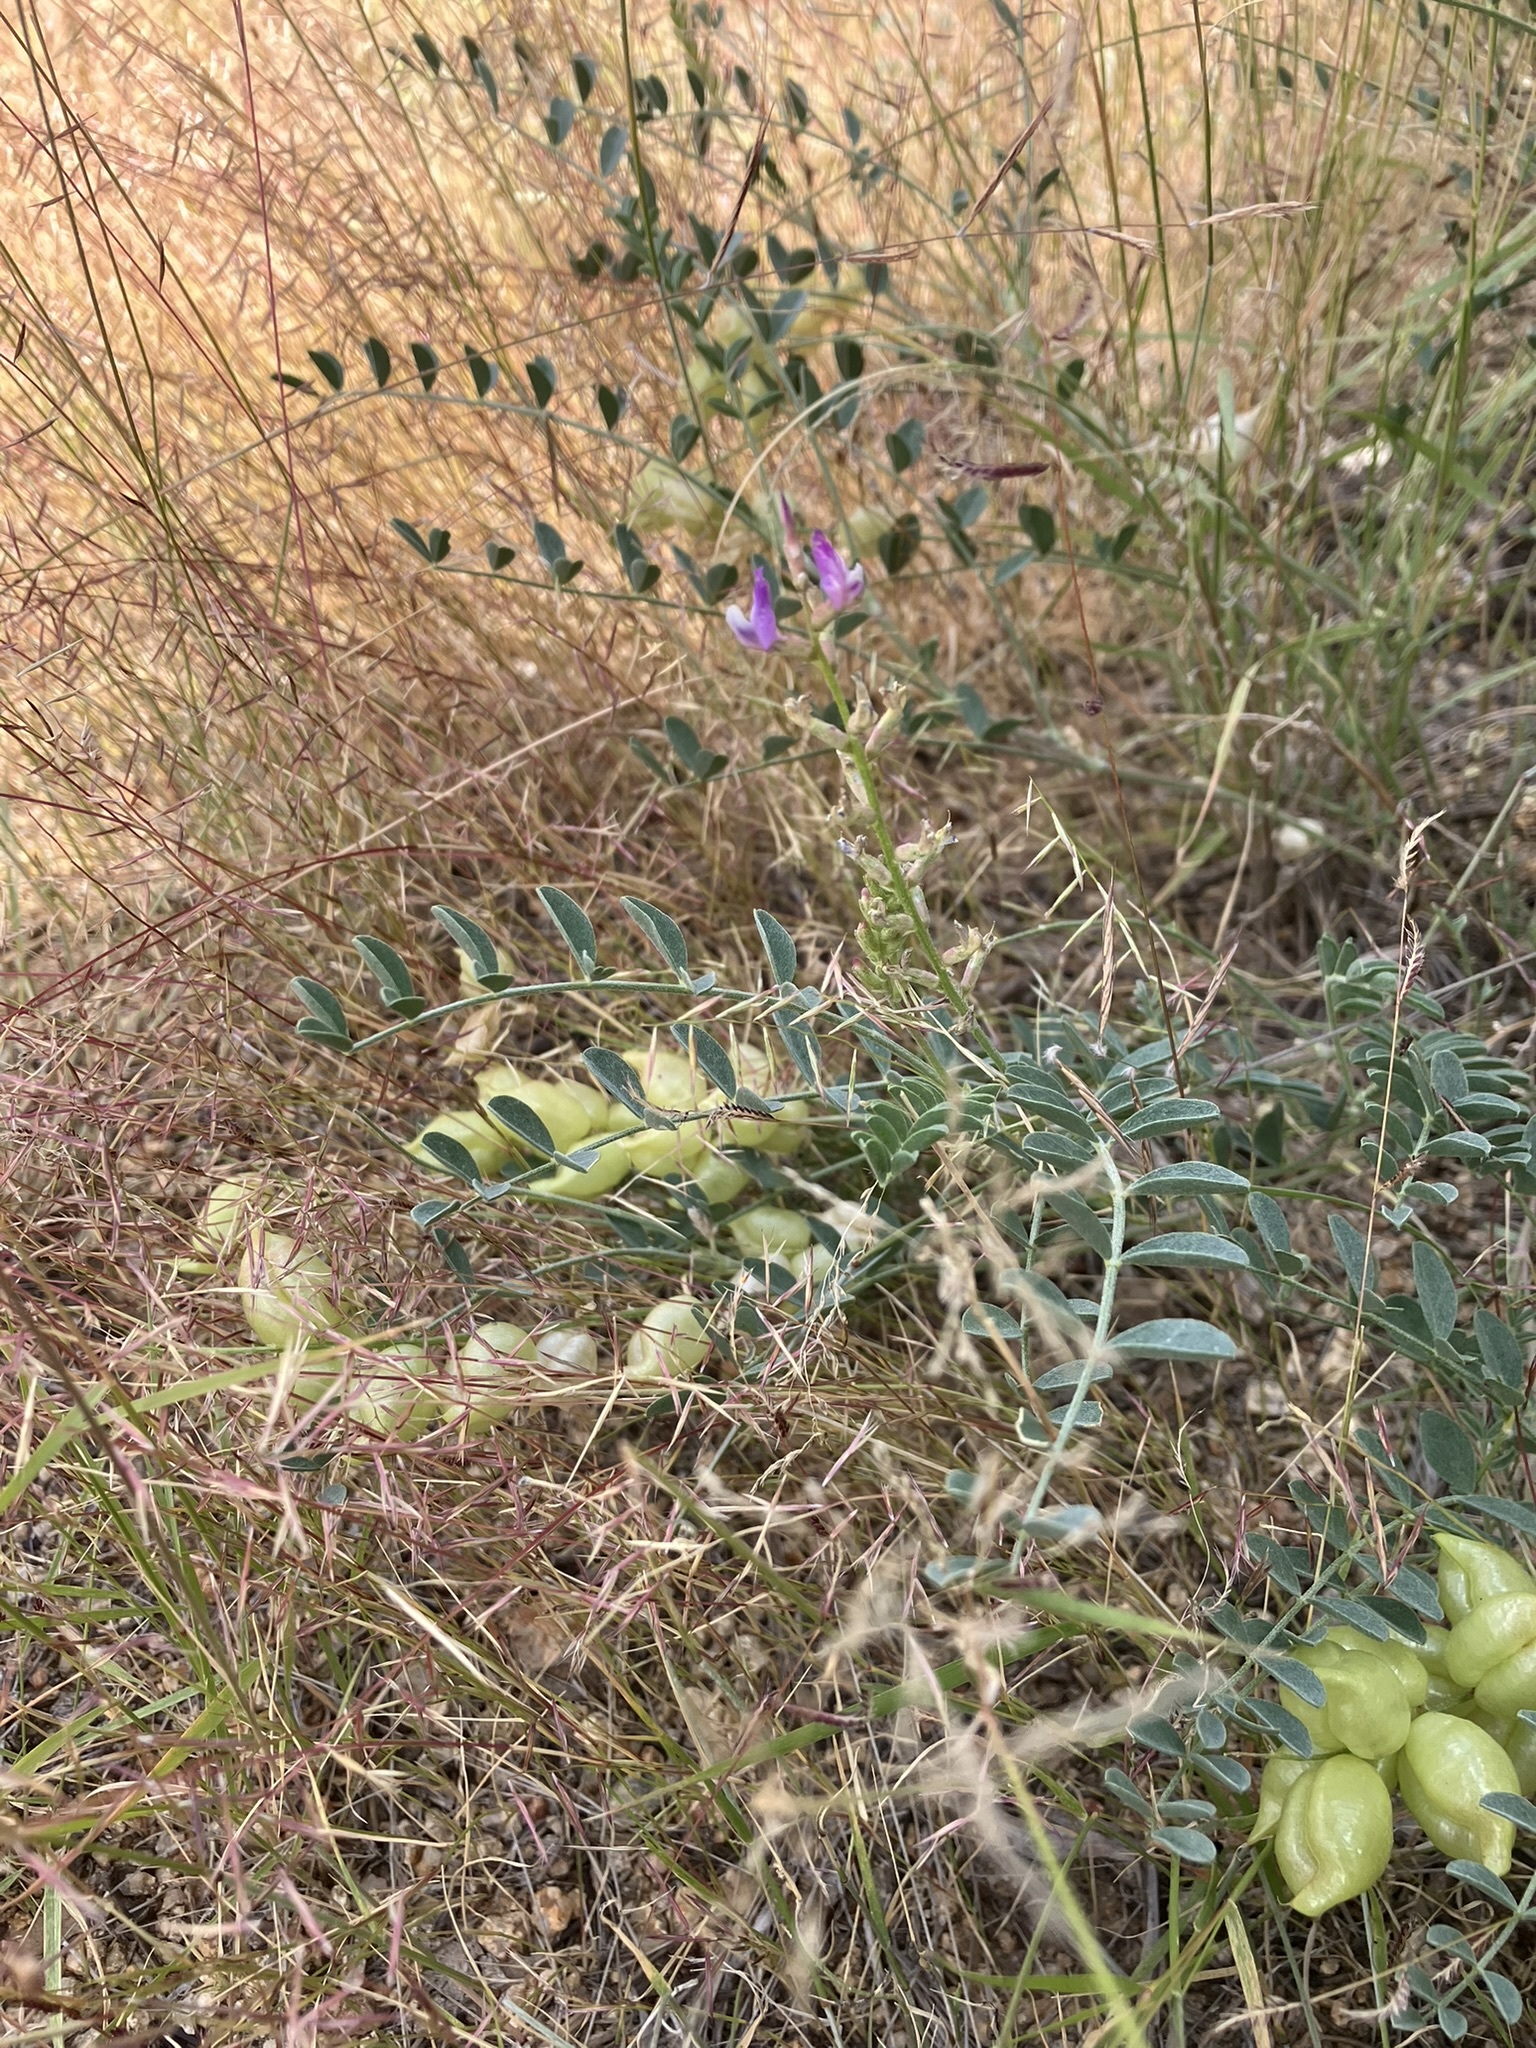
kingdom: Plantae
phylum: Tracheophyta
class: Magnoliopsida
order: Fabales
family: Fabaceae
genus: Astragalus
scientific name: Astragalus lentiginosus
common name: Freckled milkvetch
